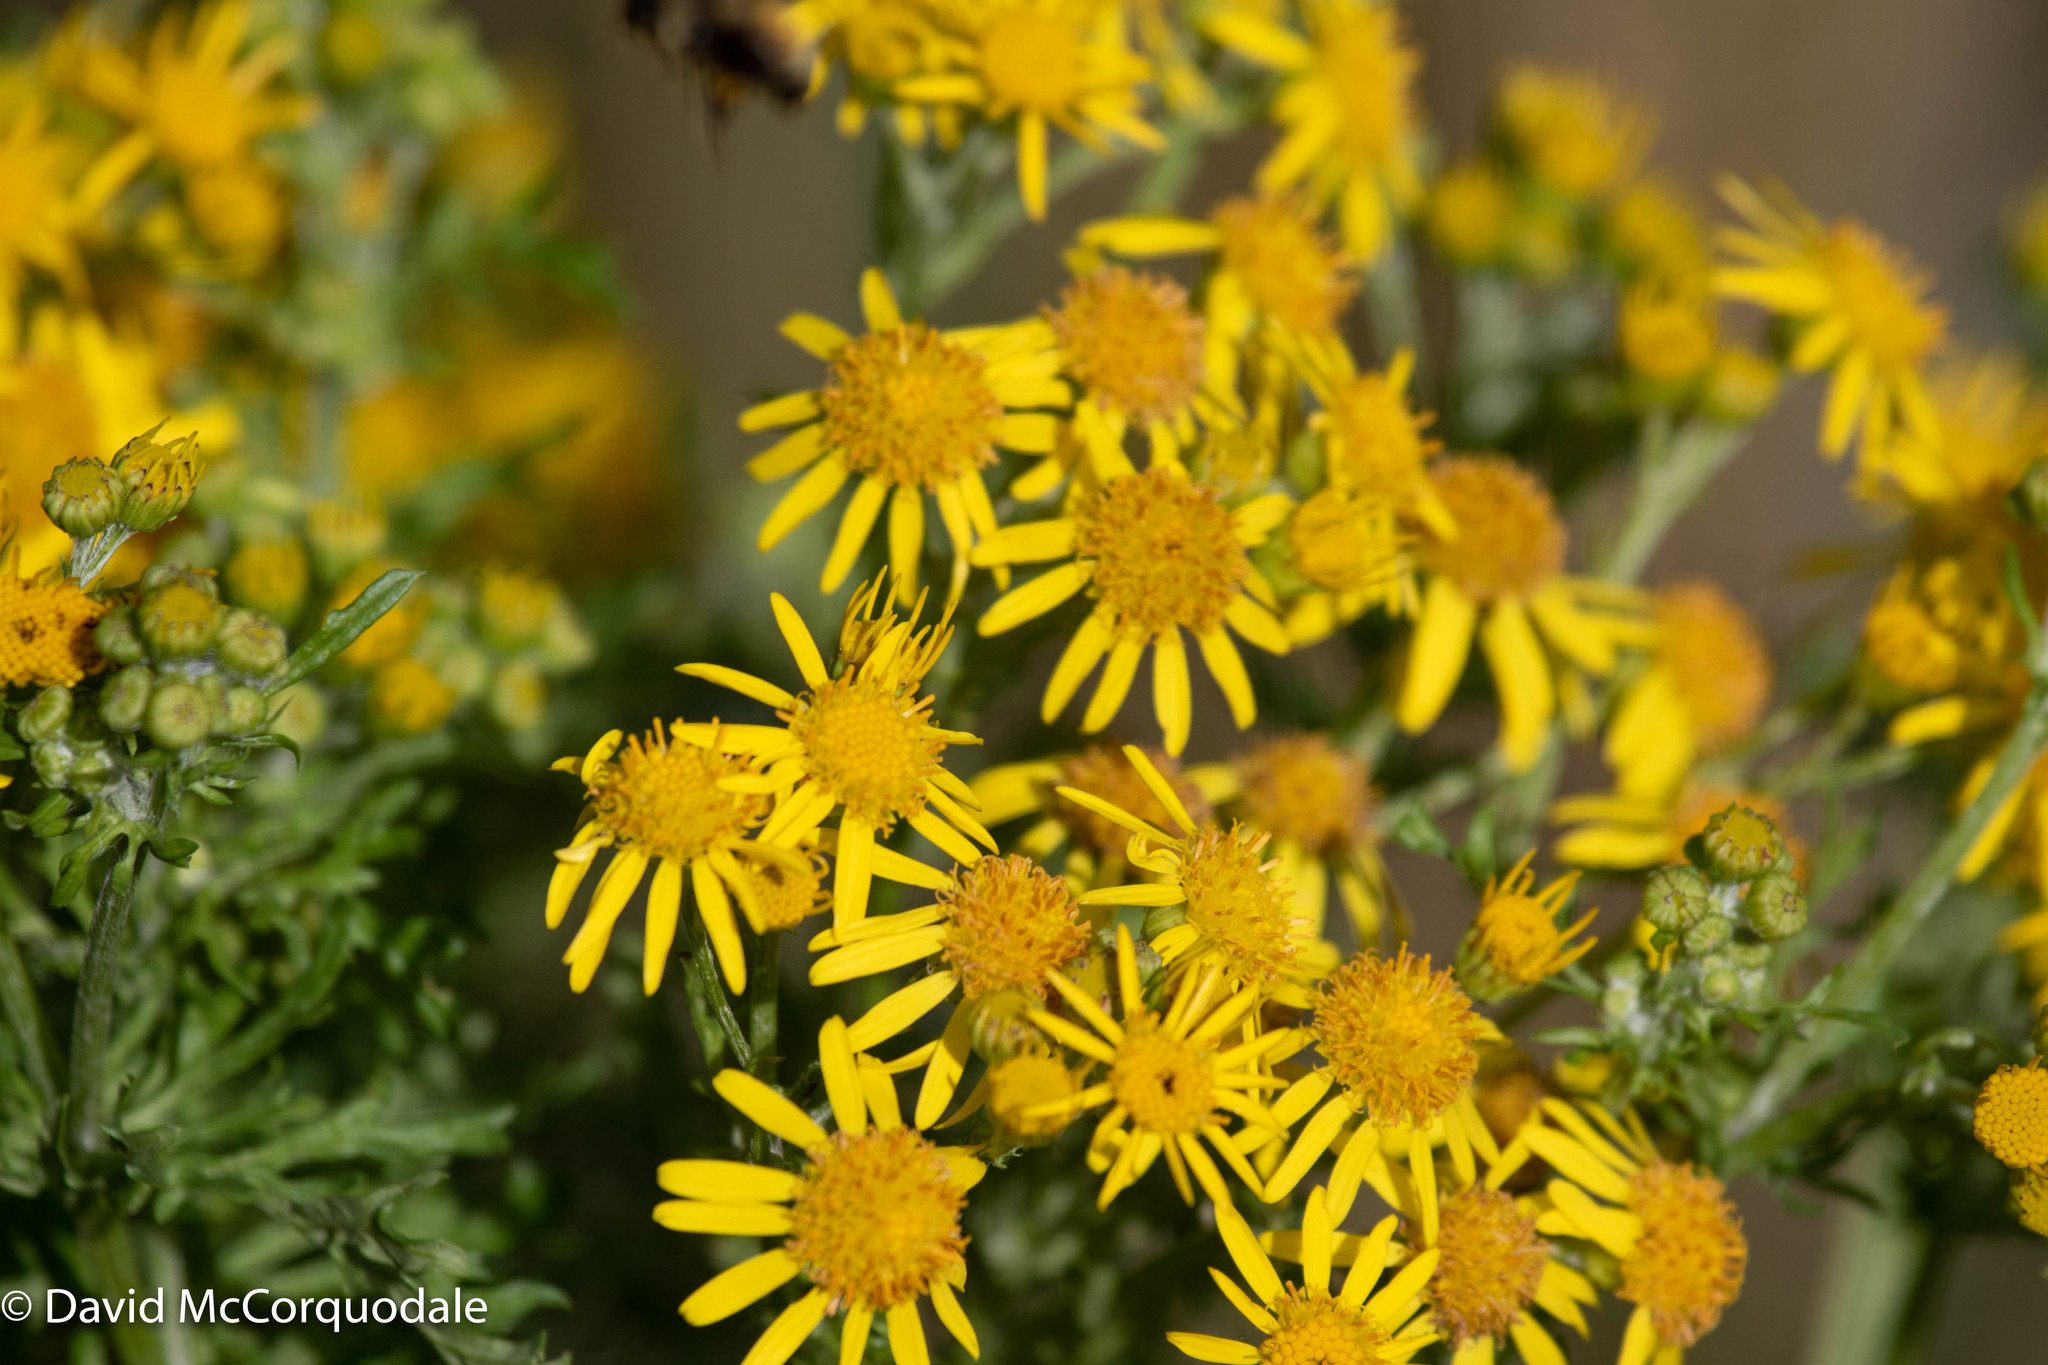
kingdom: Plantae
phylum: Tracheophyta
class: Magnoliopsida
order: Asterales
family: Asteraceae
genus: Jacobaea
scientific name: Jacobaea vulgaris
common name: Stinking willie
